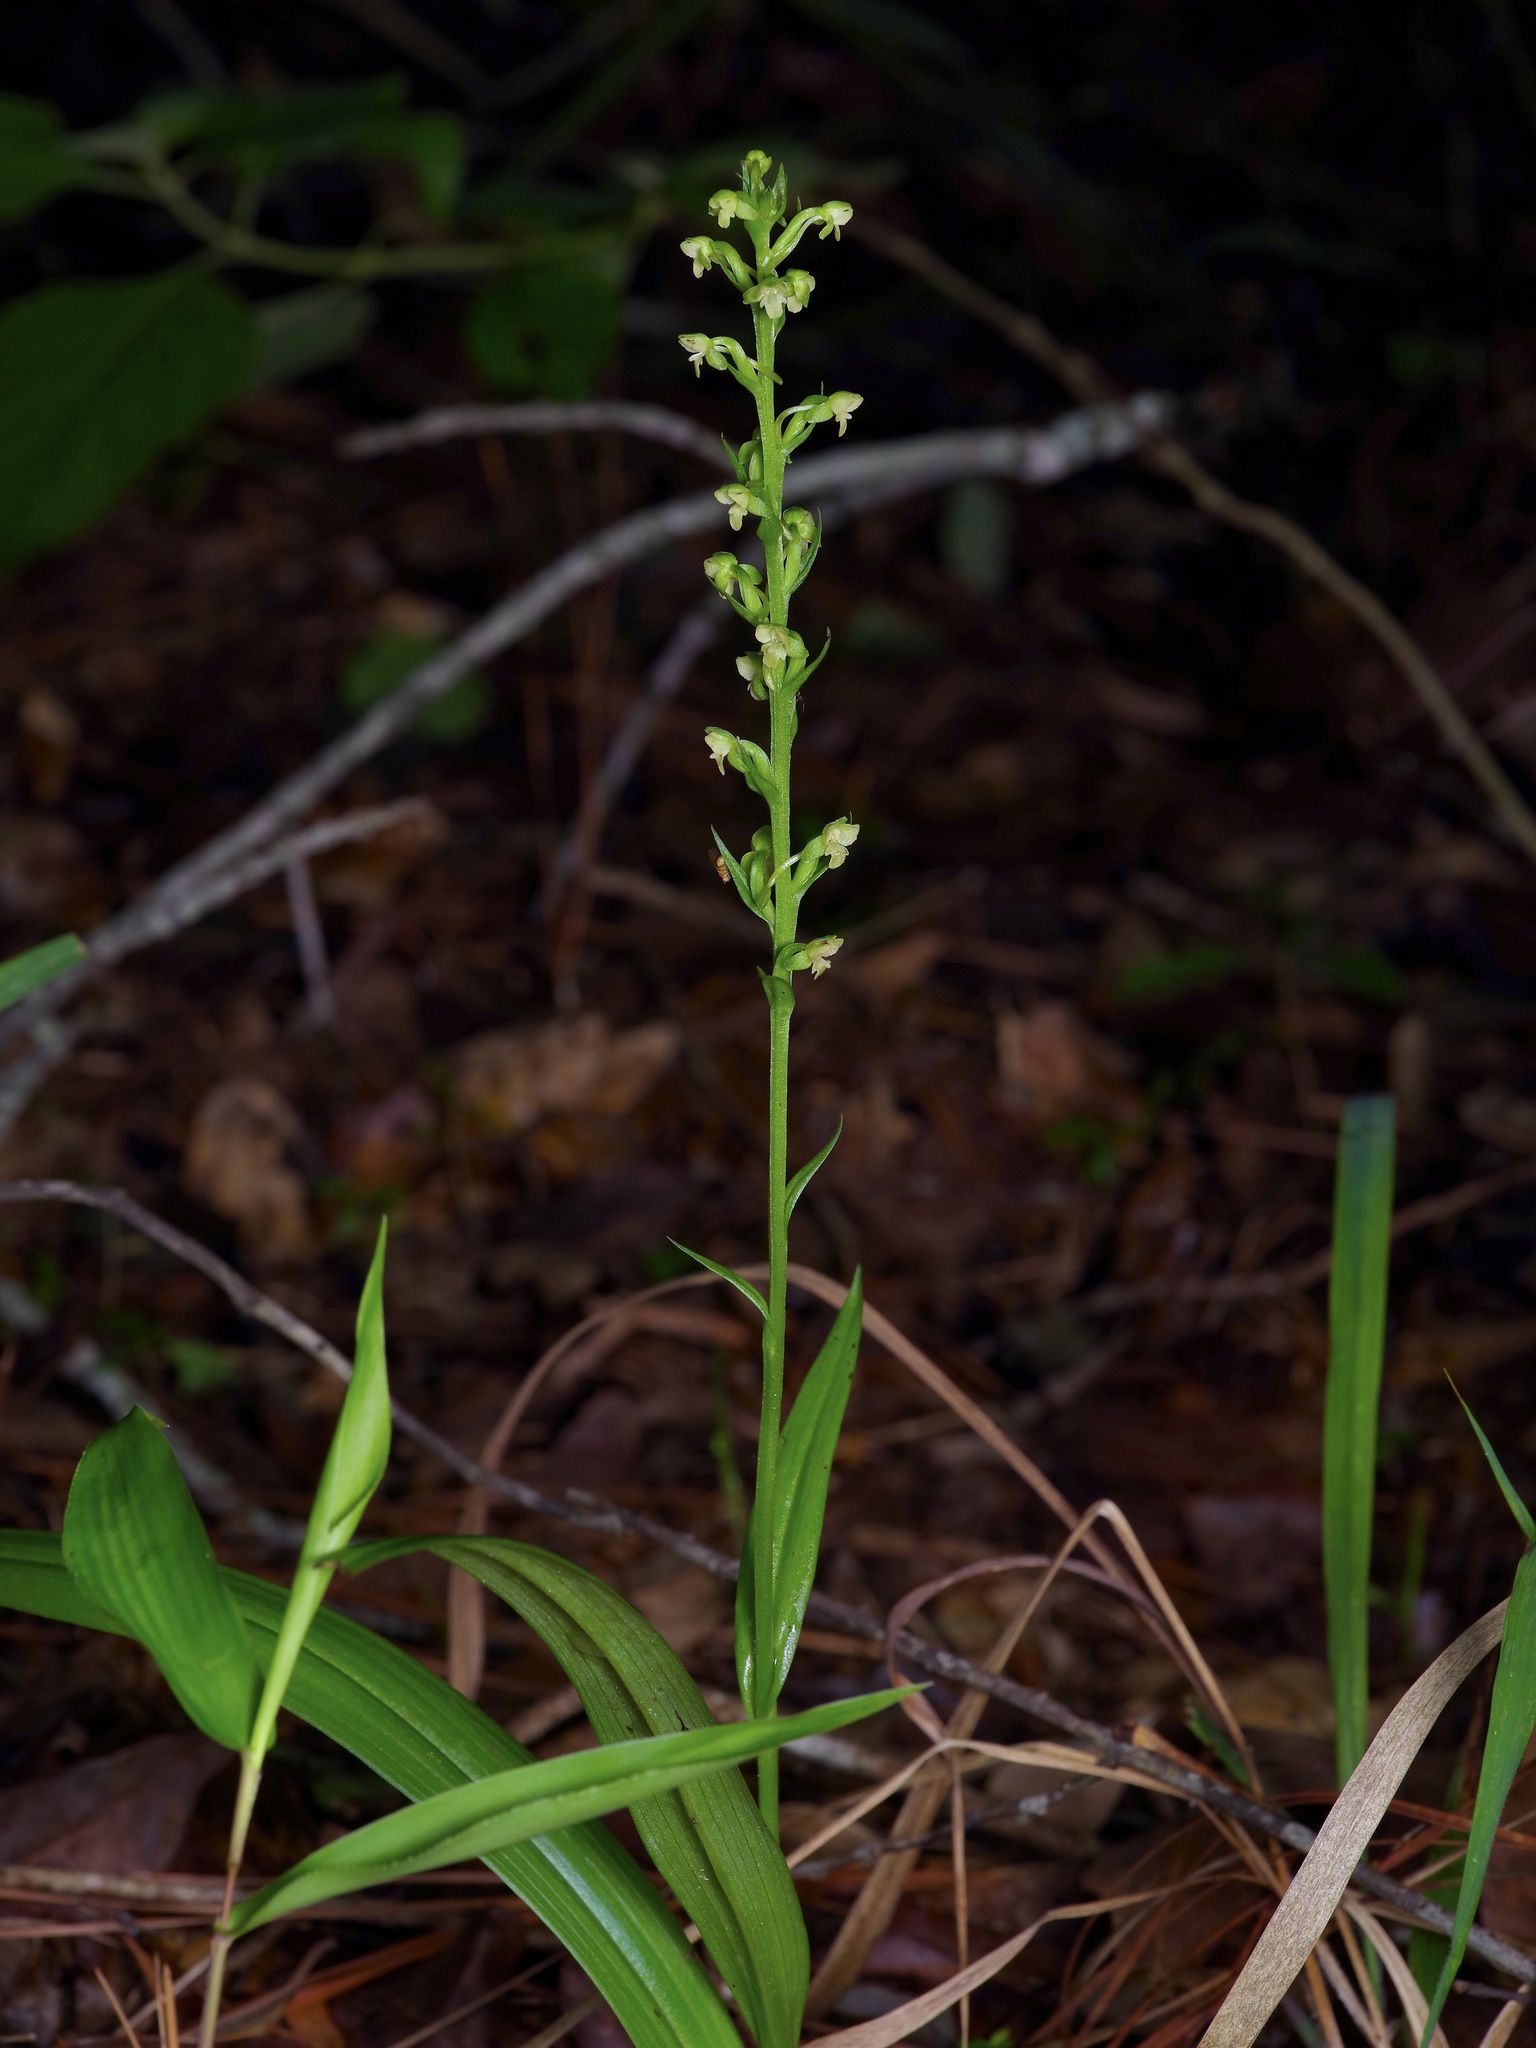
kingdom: Plantae
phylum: Tracheophyta
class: Liliopsida
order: Asparagales
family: Orchidaceae
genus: Platanthera
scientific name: Platanthera flava
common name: Gypsy-spikes
